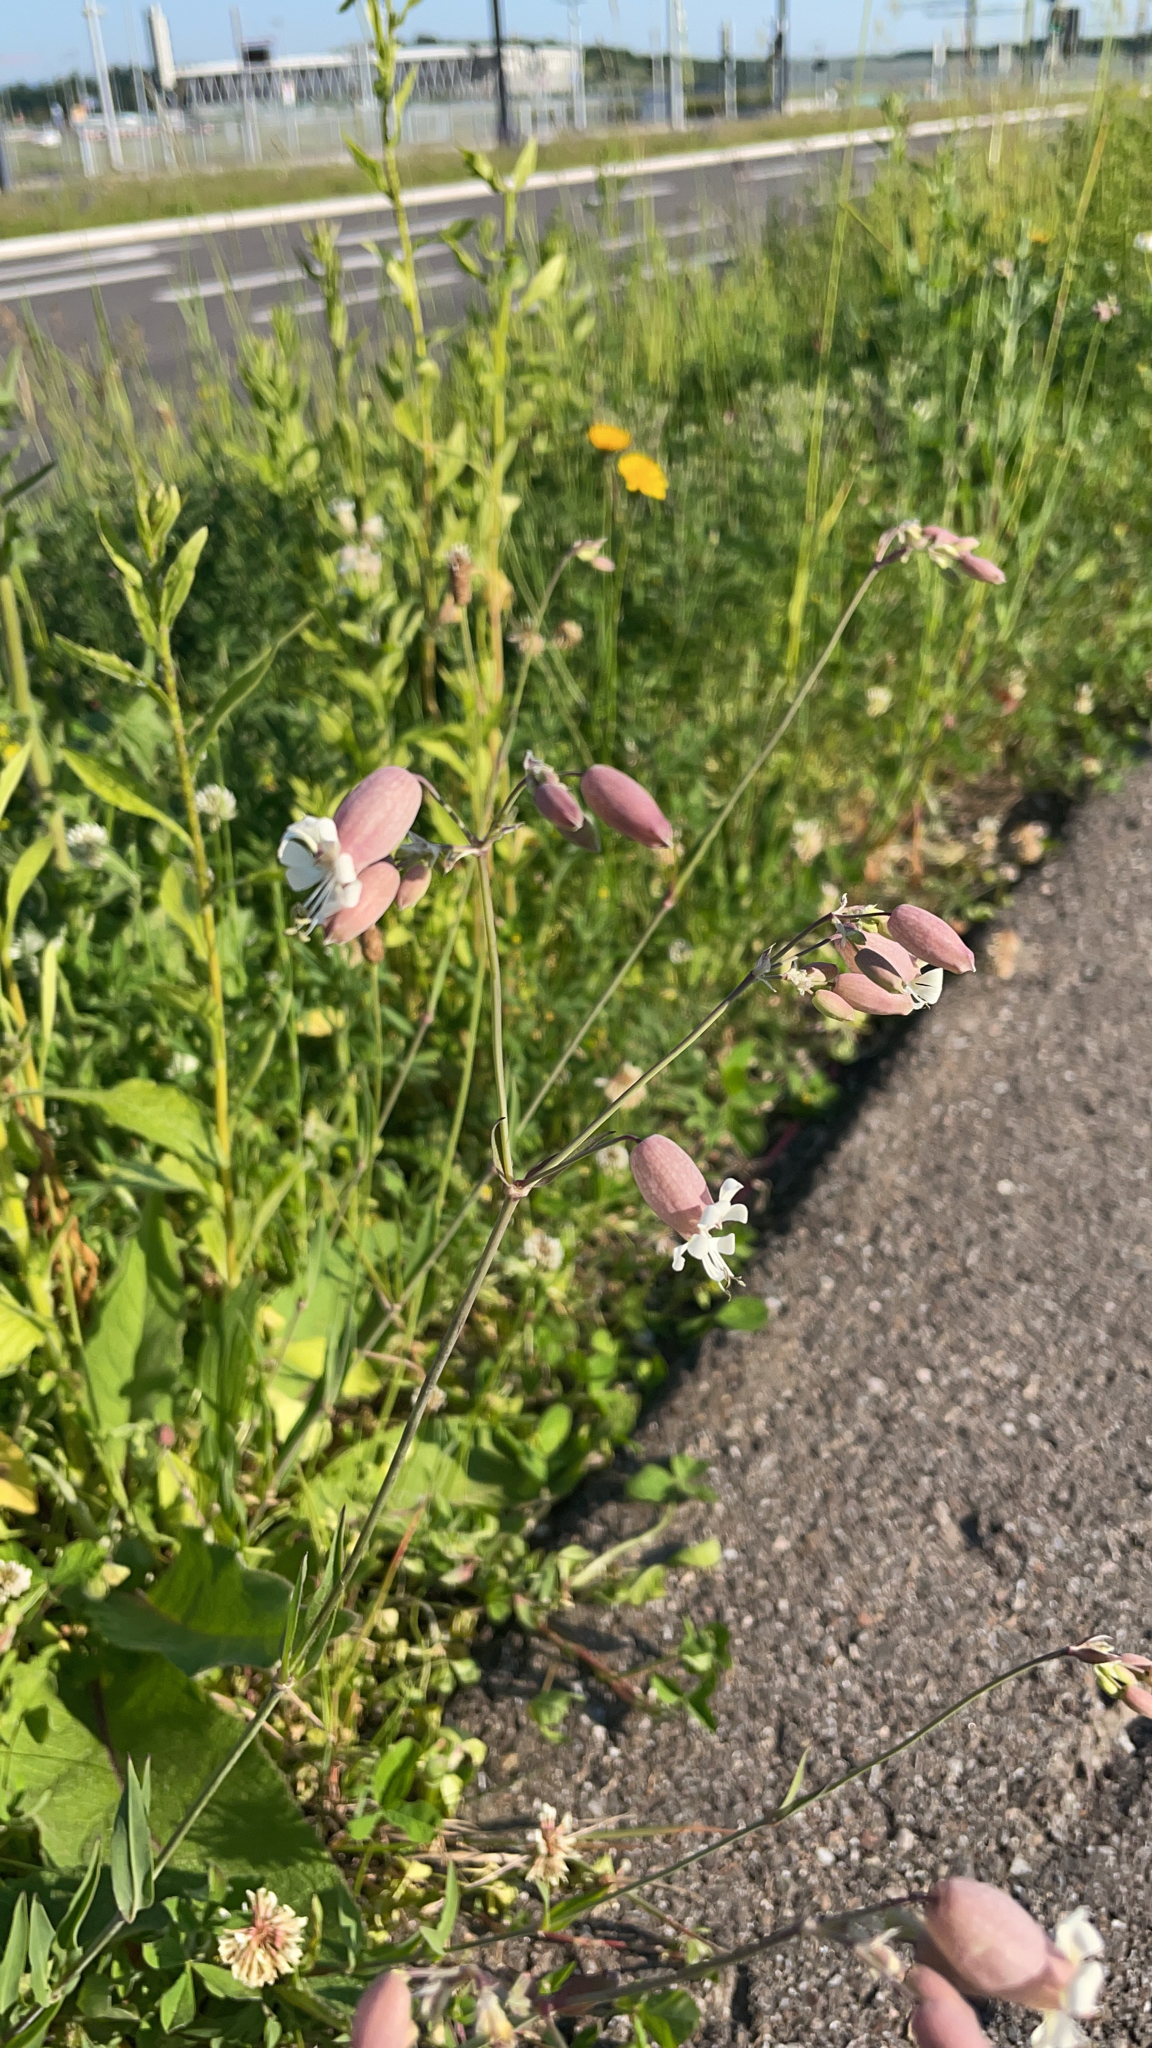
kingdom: Plantae
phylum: Tracheophyta
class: Magnoliopsida
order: Caryophyllales
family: Caryophyllaceae
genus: Silene
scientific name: Silene vulgaris
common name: Bladder campion
